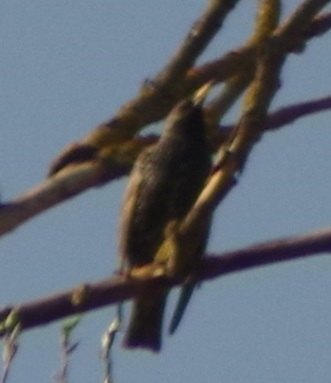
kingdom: Animalia
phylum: Chordata
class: Aves
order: Passeriformes
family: Sturnidae
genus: Sturnus
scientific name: Sturnus vulgaris
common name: Common starling
